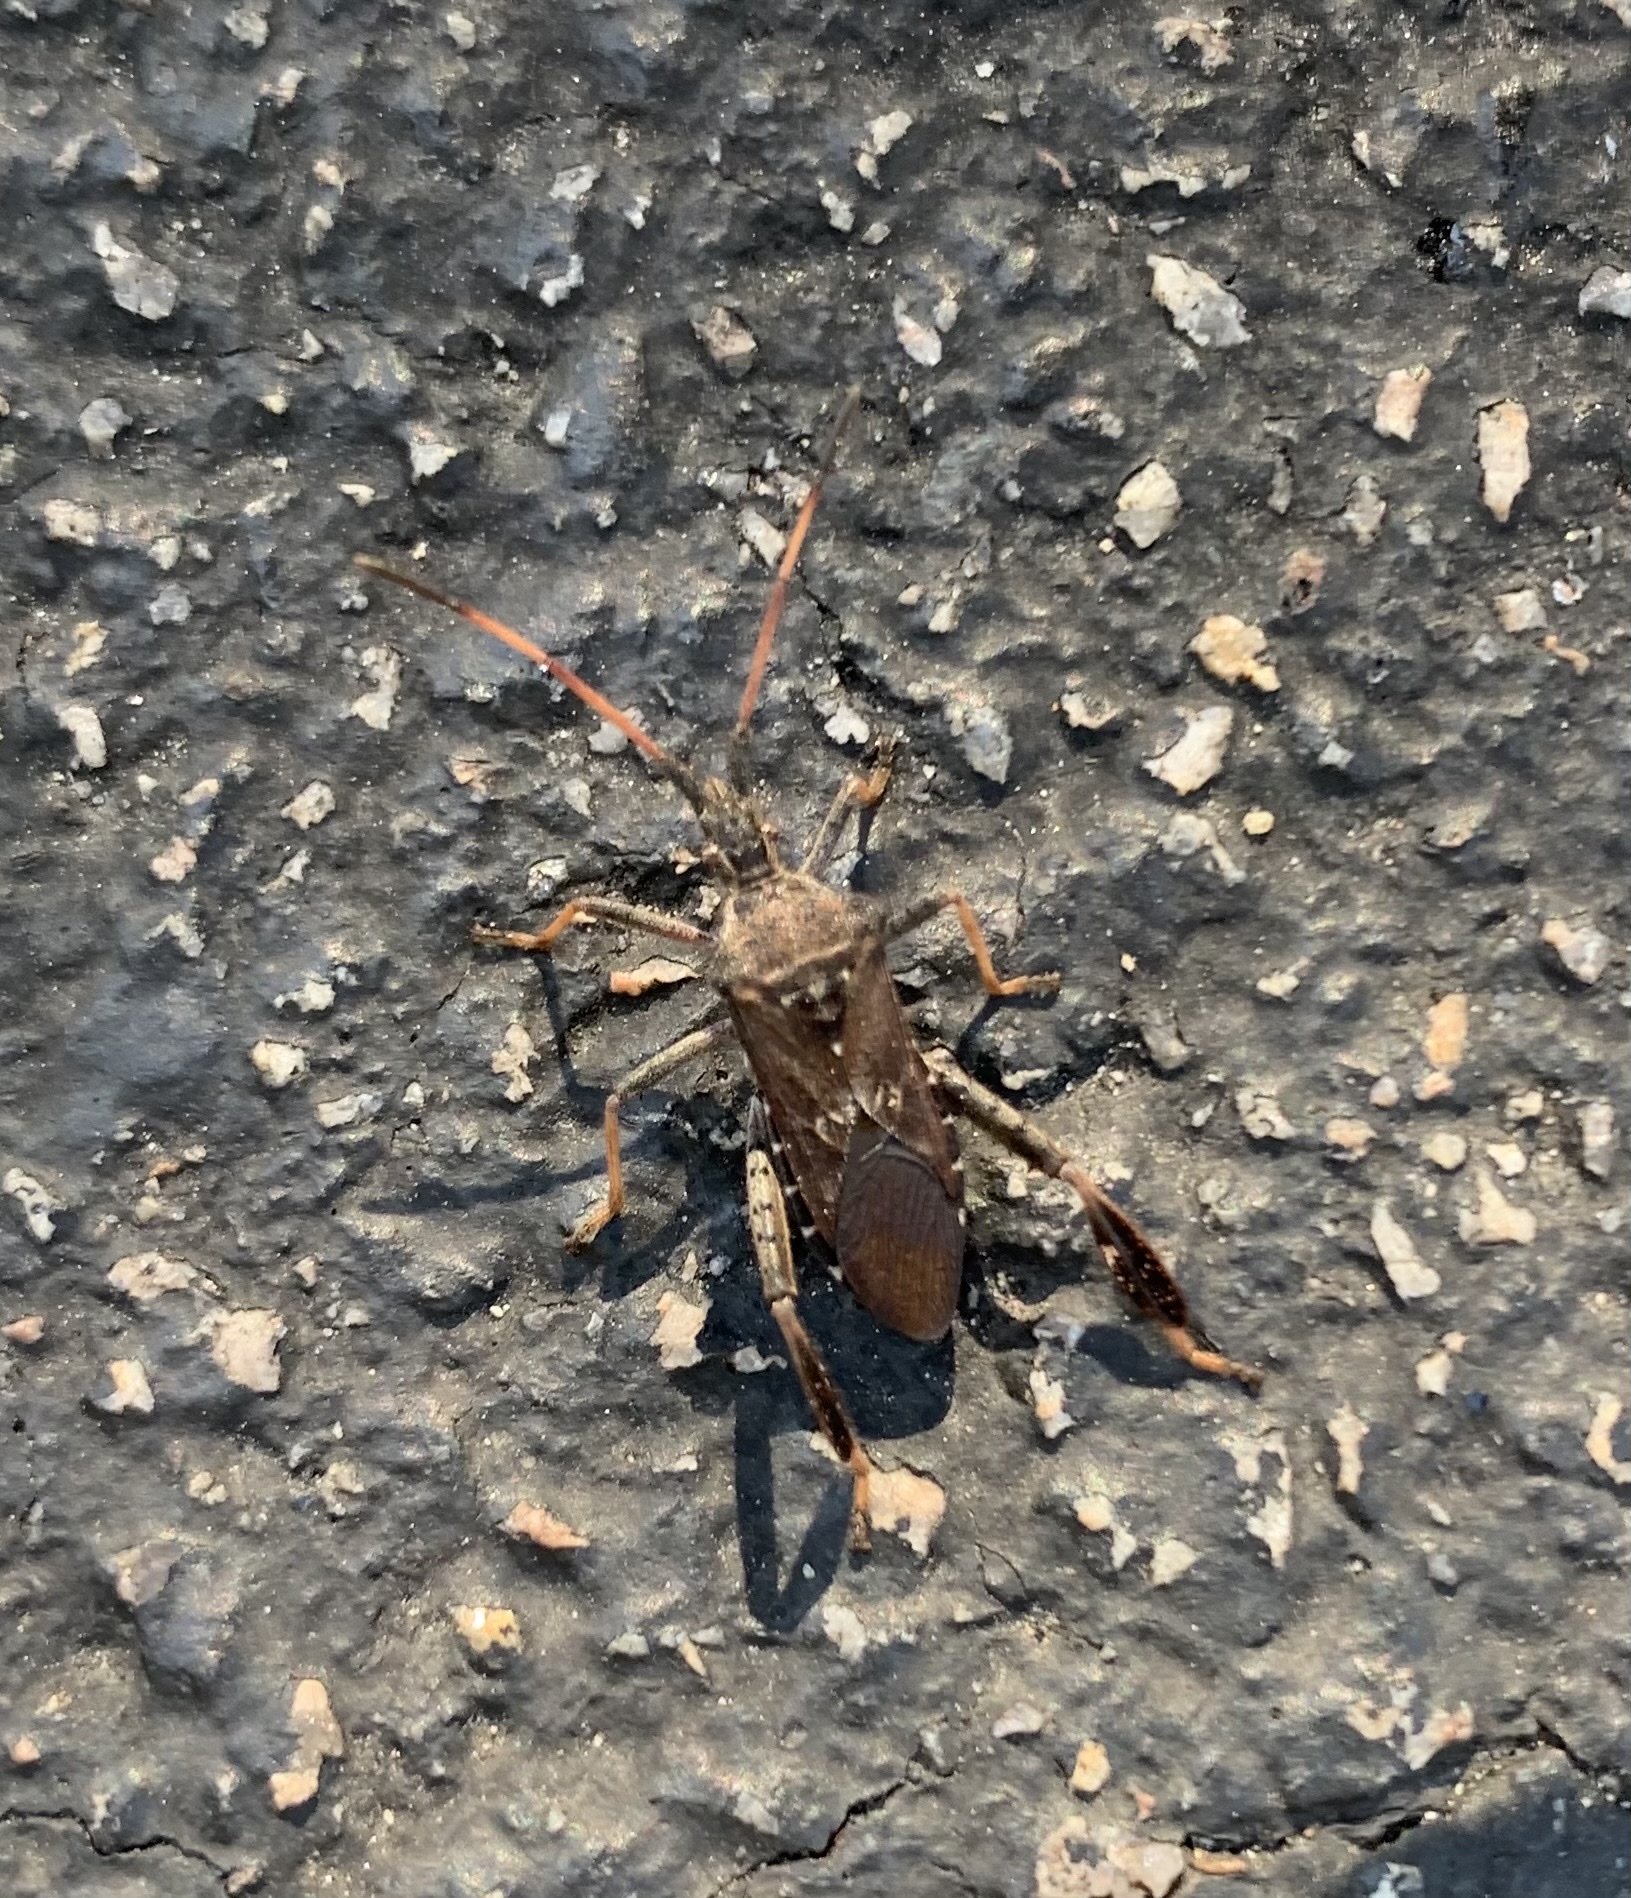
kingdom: Animalia
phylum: Arthropoda
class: Insecta
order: Hemiptera
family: Coreidae
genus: Leptoglossus
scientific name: Leptoglossus corculus
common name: Southern pine seed bug
